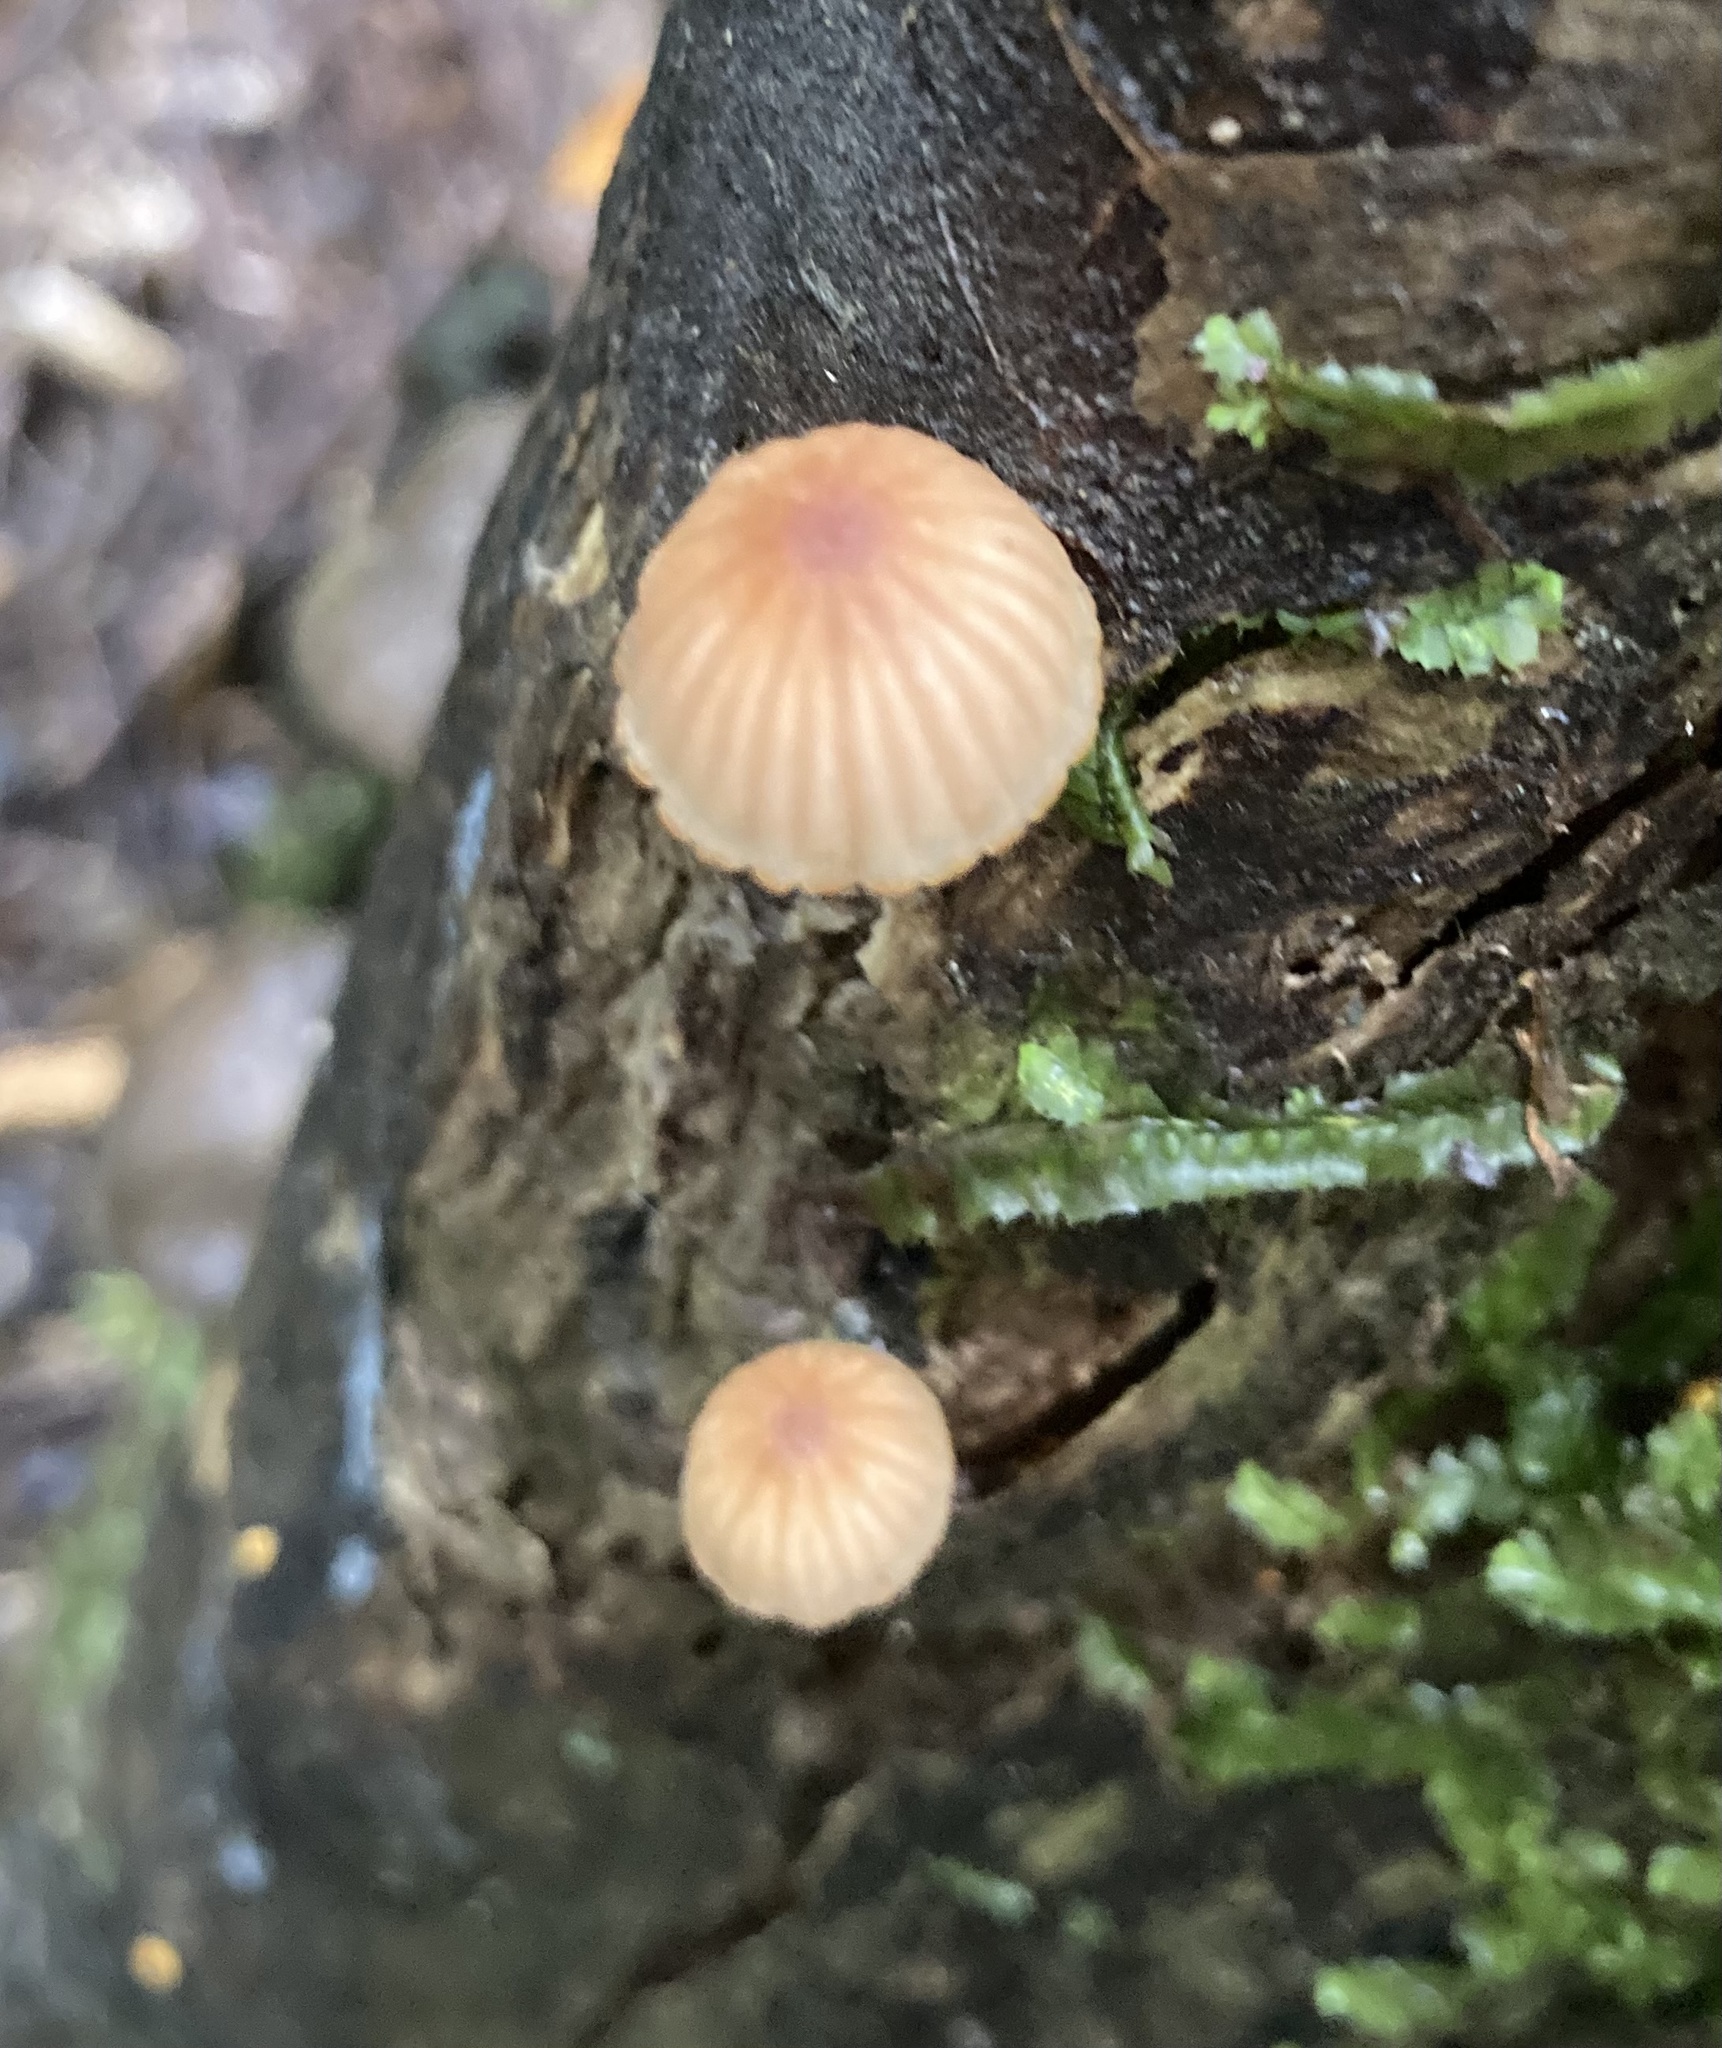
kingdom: Fungi
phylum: Basidiomycota
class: Agaricomycetes
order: Agaricales
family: Mycenaceae
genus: Mycena
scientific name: Mycena mariae
